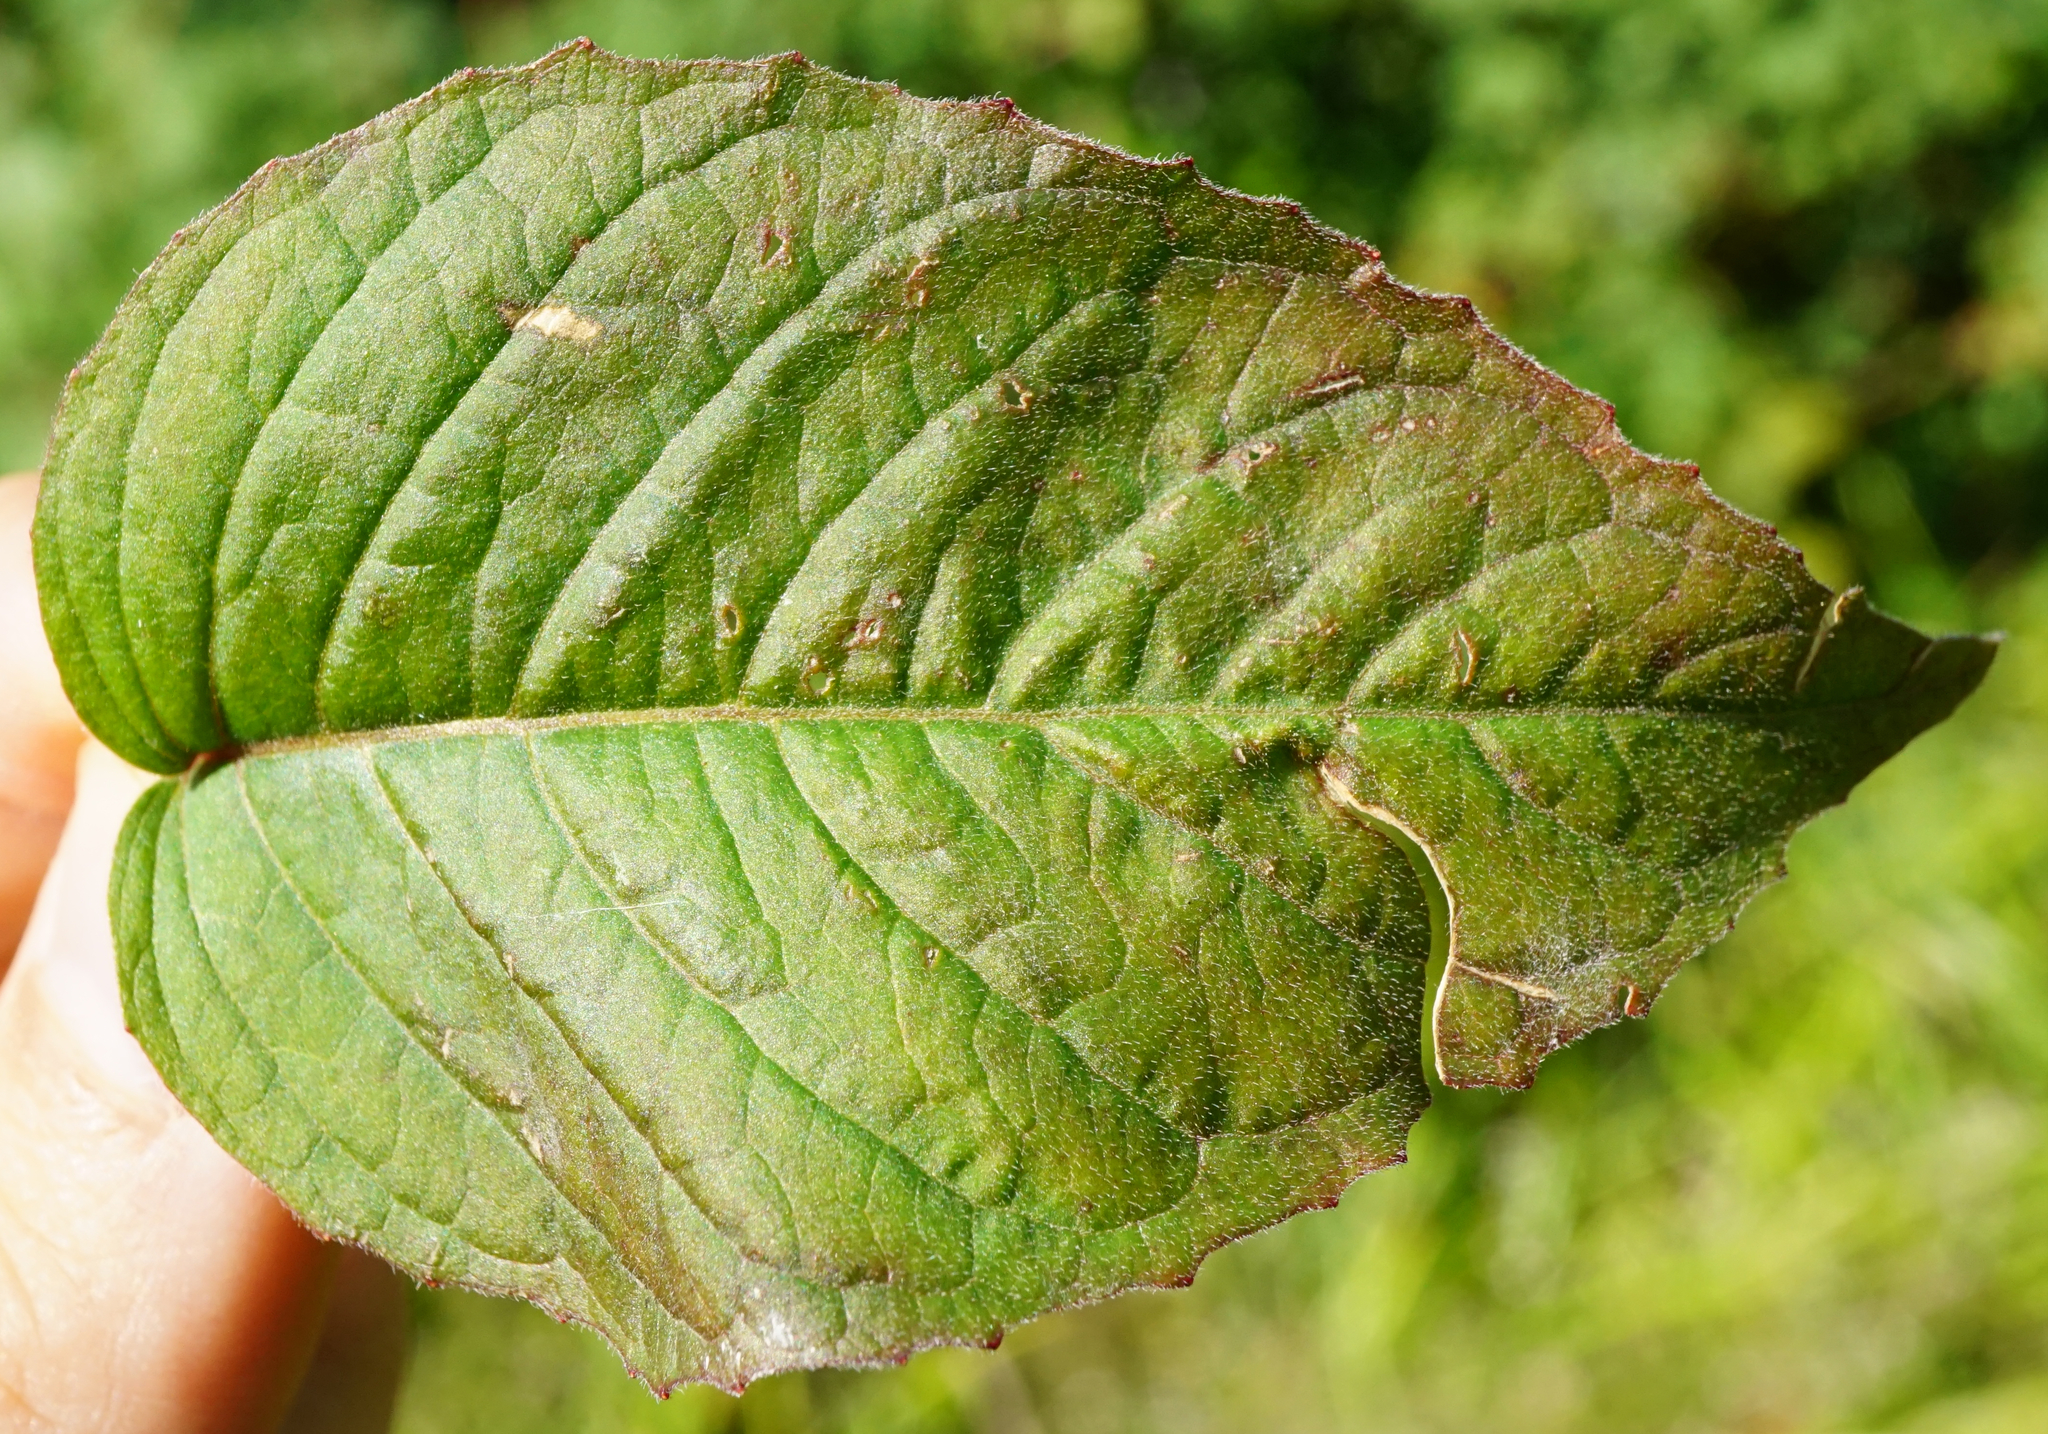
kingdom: Plantae
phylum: Tracheophyta
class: Magnoliopsida
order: Myrtales
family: Onagraceae
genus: Circaea
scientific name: Circaea lutetiana
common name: Enchanter's-nightshade
